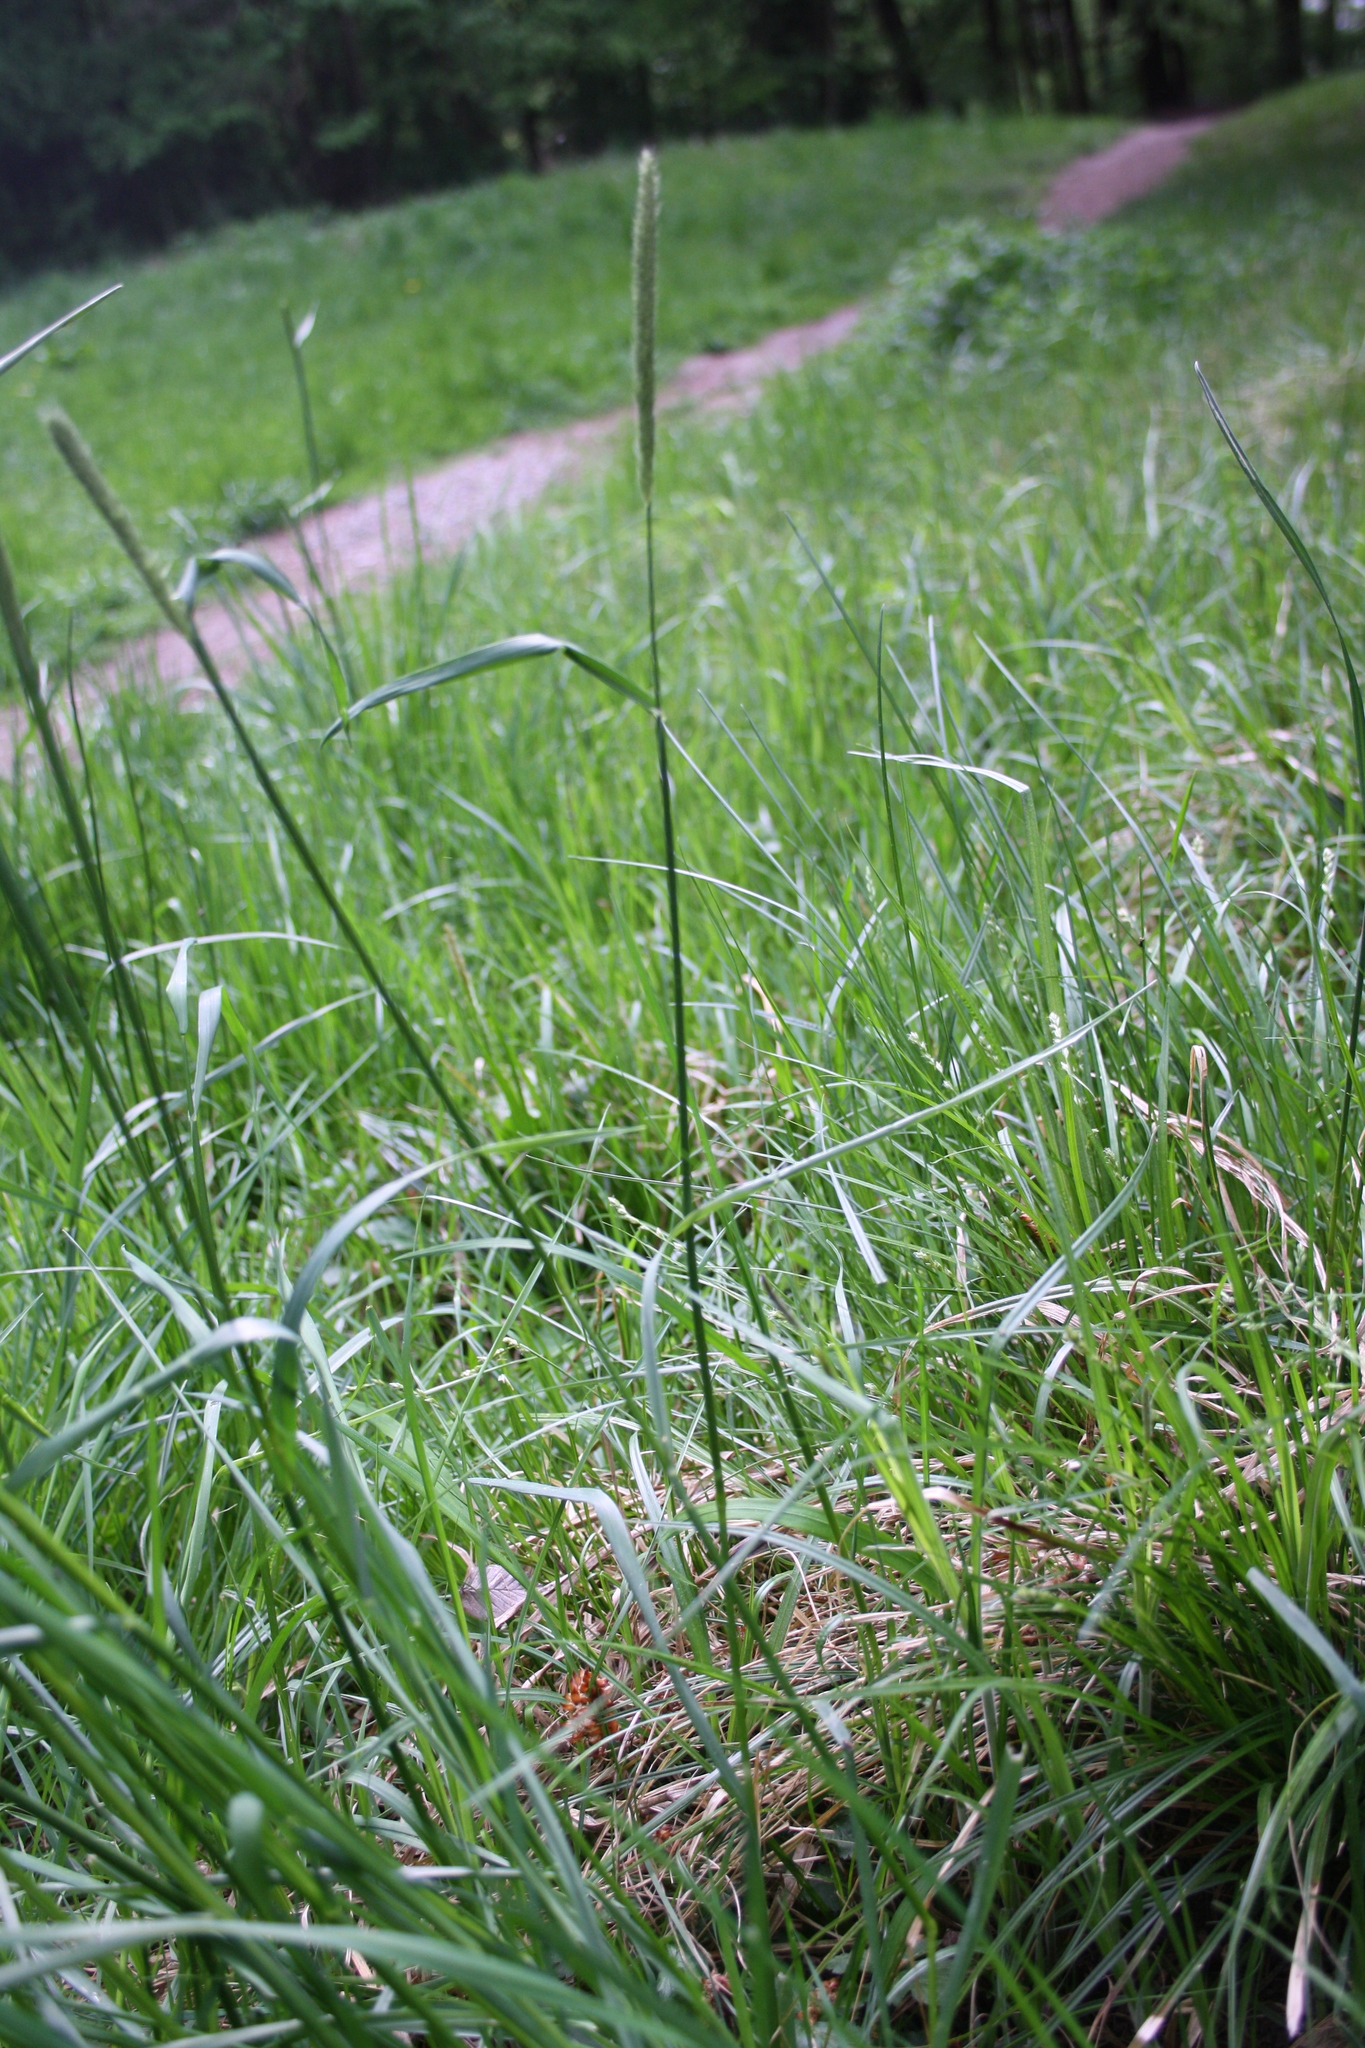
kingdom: Plantae
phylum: Tracheophyta
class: Liliopsida
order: Poales
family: Poaceae
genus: Alopecurus
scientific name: Alopecurus pratensis
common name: Meadow foxtail
